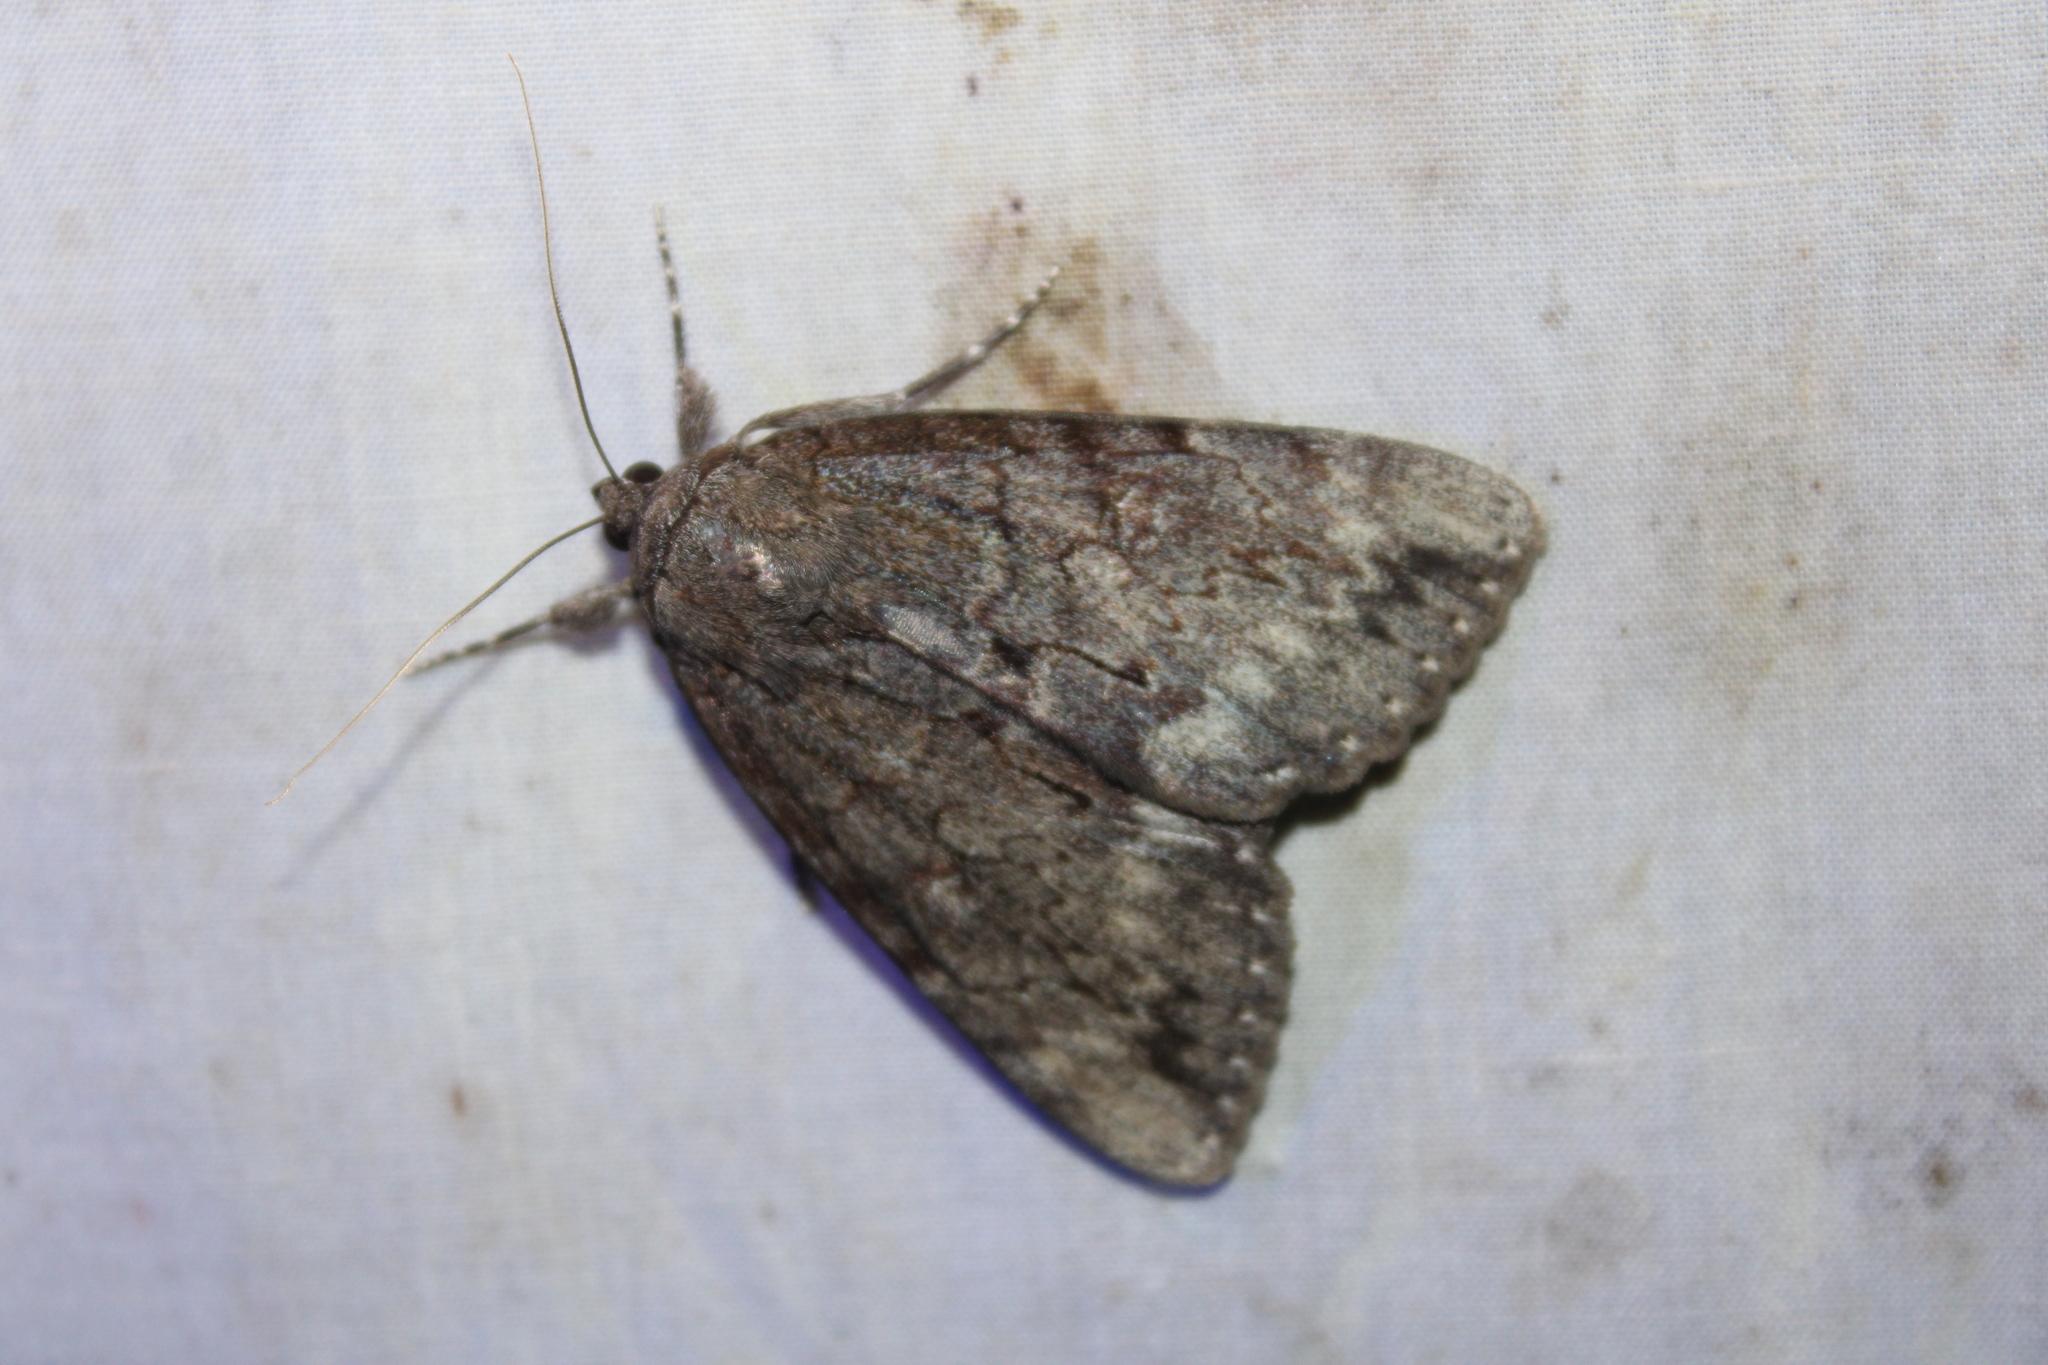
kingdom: Animalia
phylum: Arthropoda
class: Insecta
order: Lepidoptera
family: Erebidae
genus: Catocala
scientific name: Catocala residua
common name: Residua underwing
